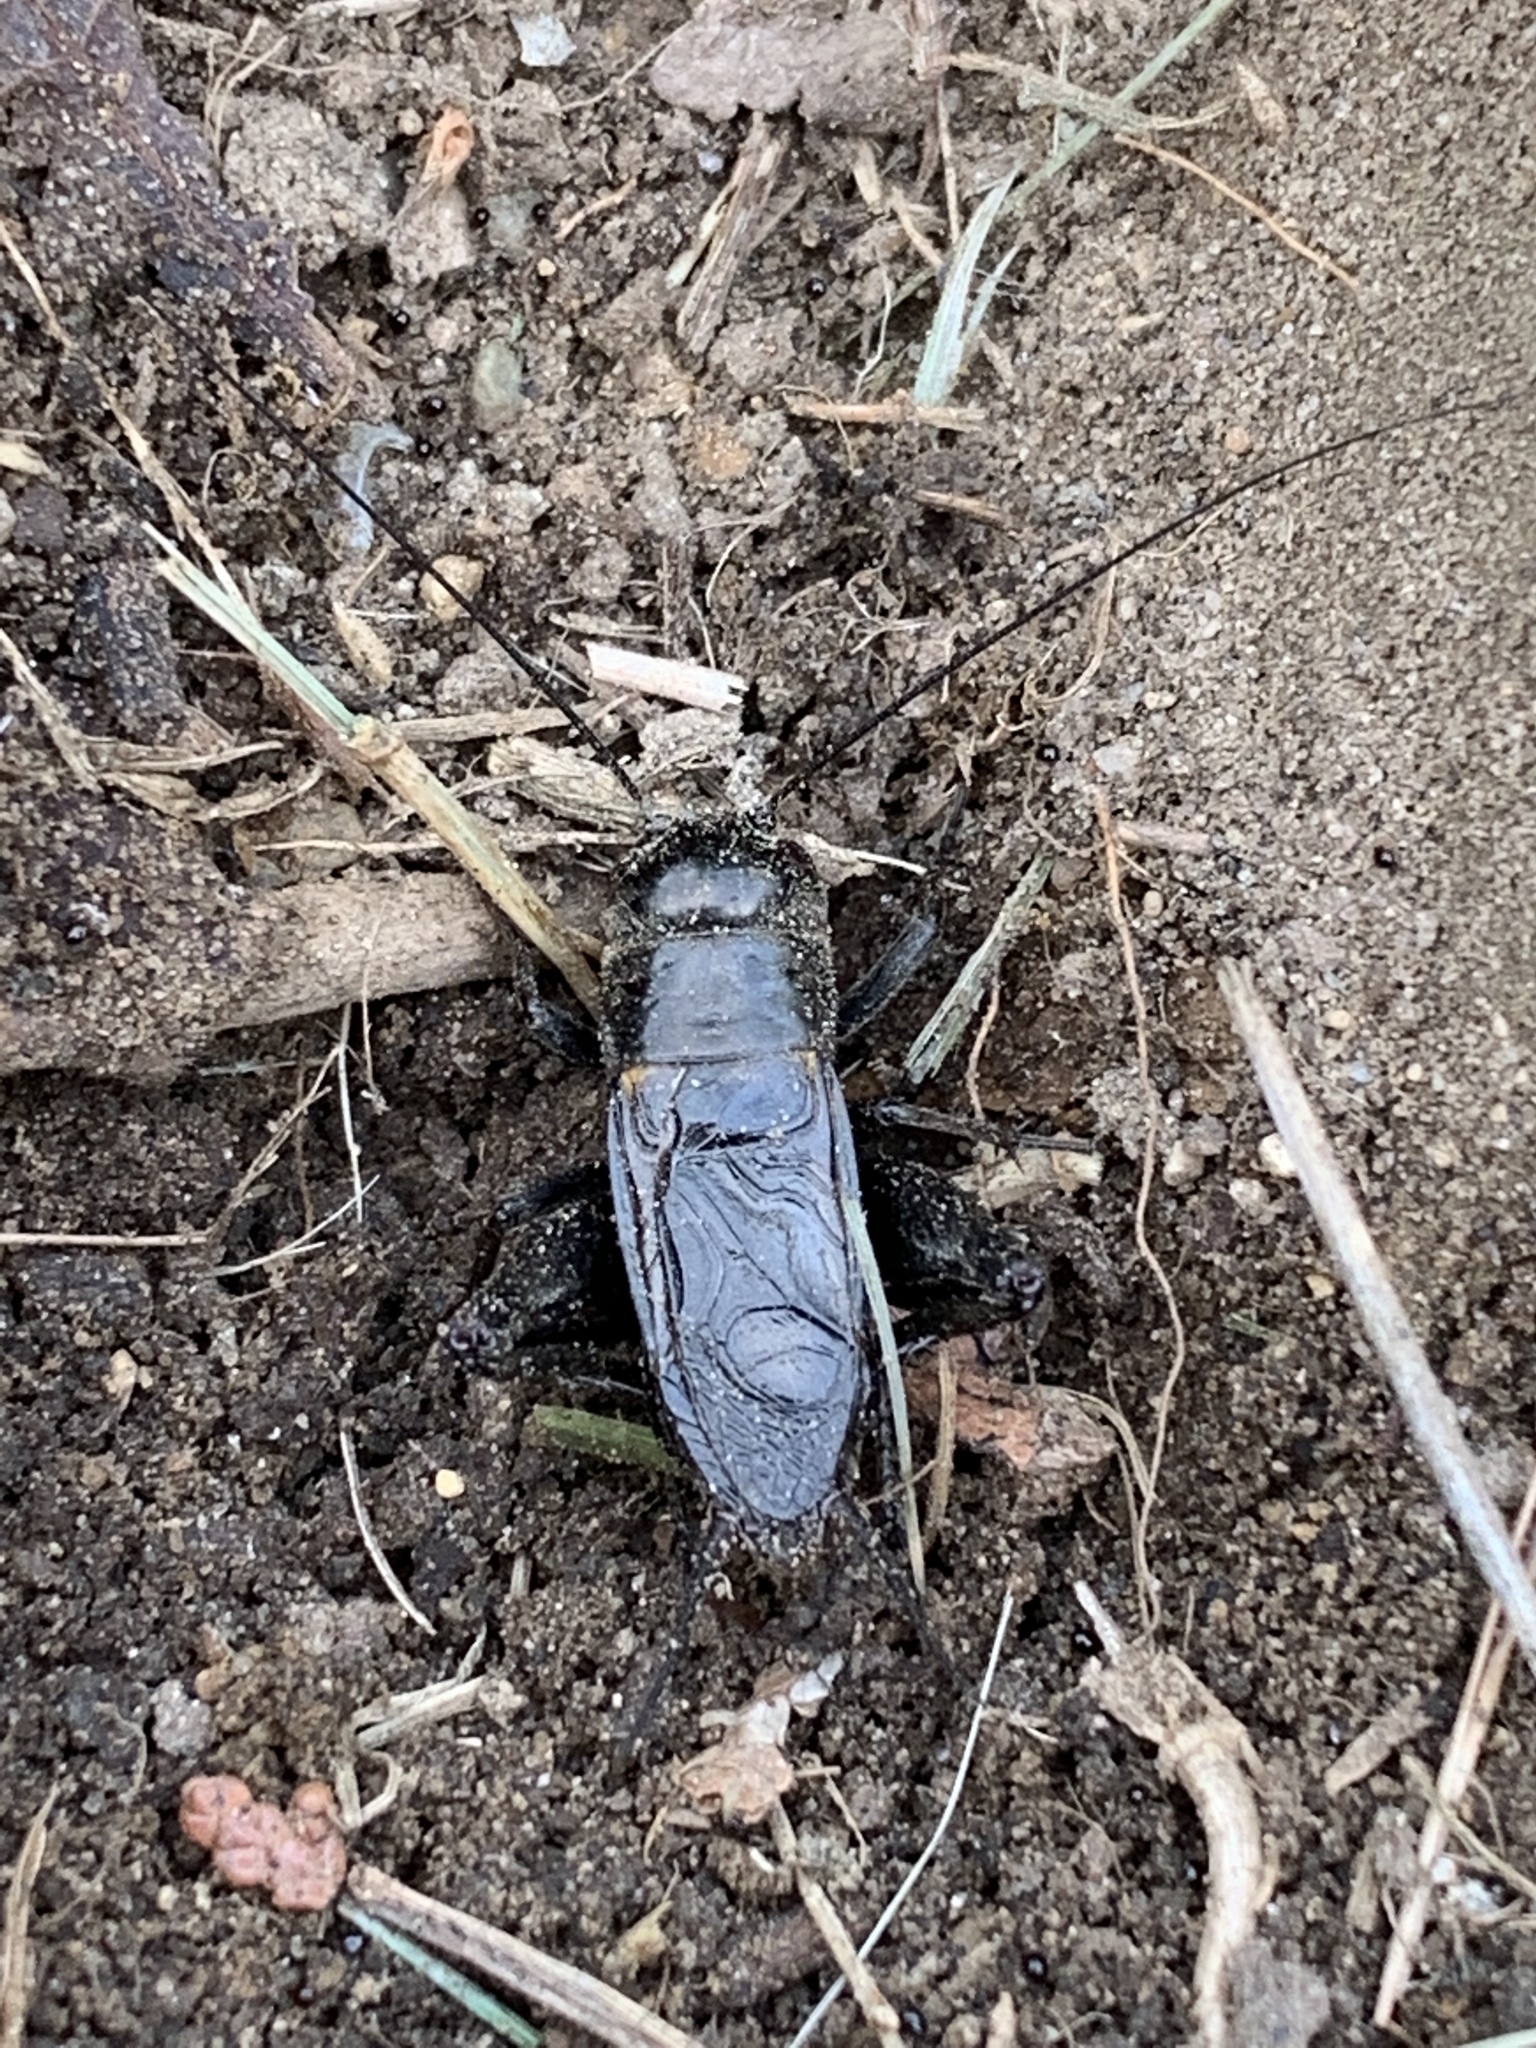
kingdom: Animalia
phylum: Arthropoda
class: Insecta
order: Orthoptera
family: Gryllidae
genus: Gryllus
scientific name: Gryllus veletis
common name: Spring field cricket
